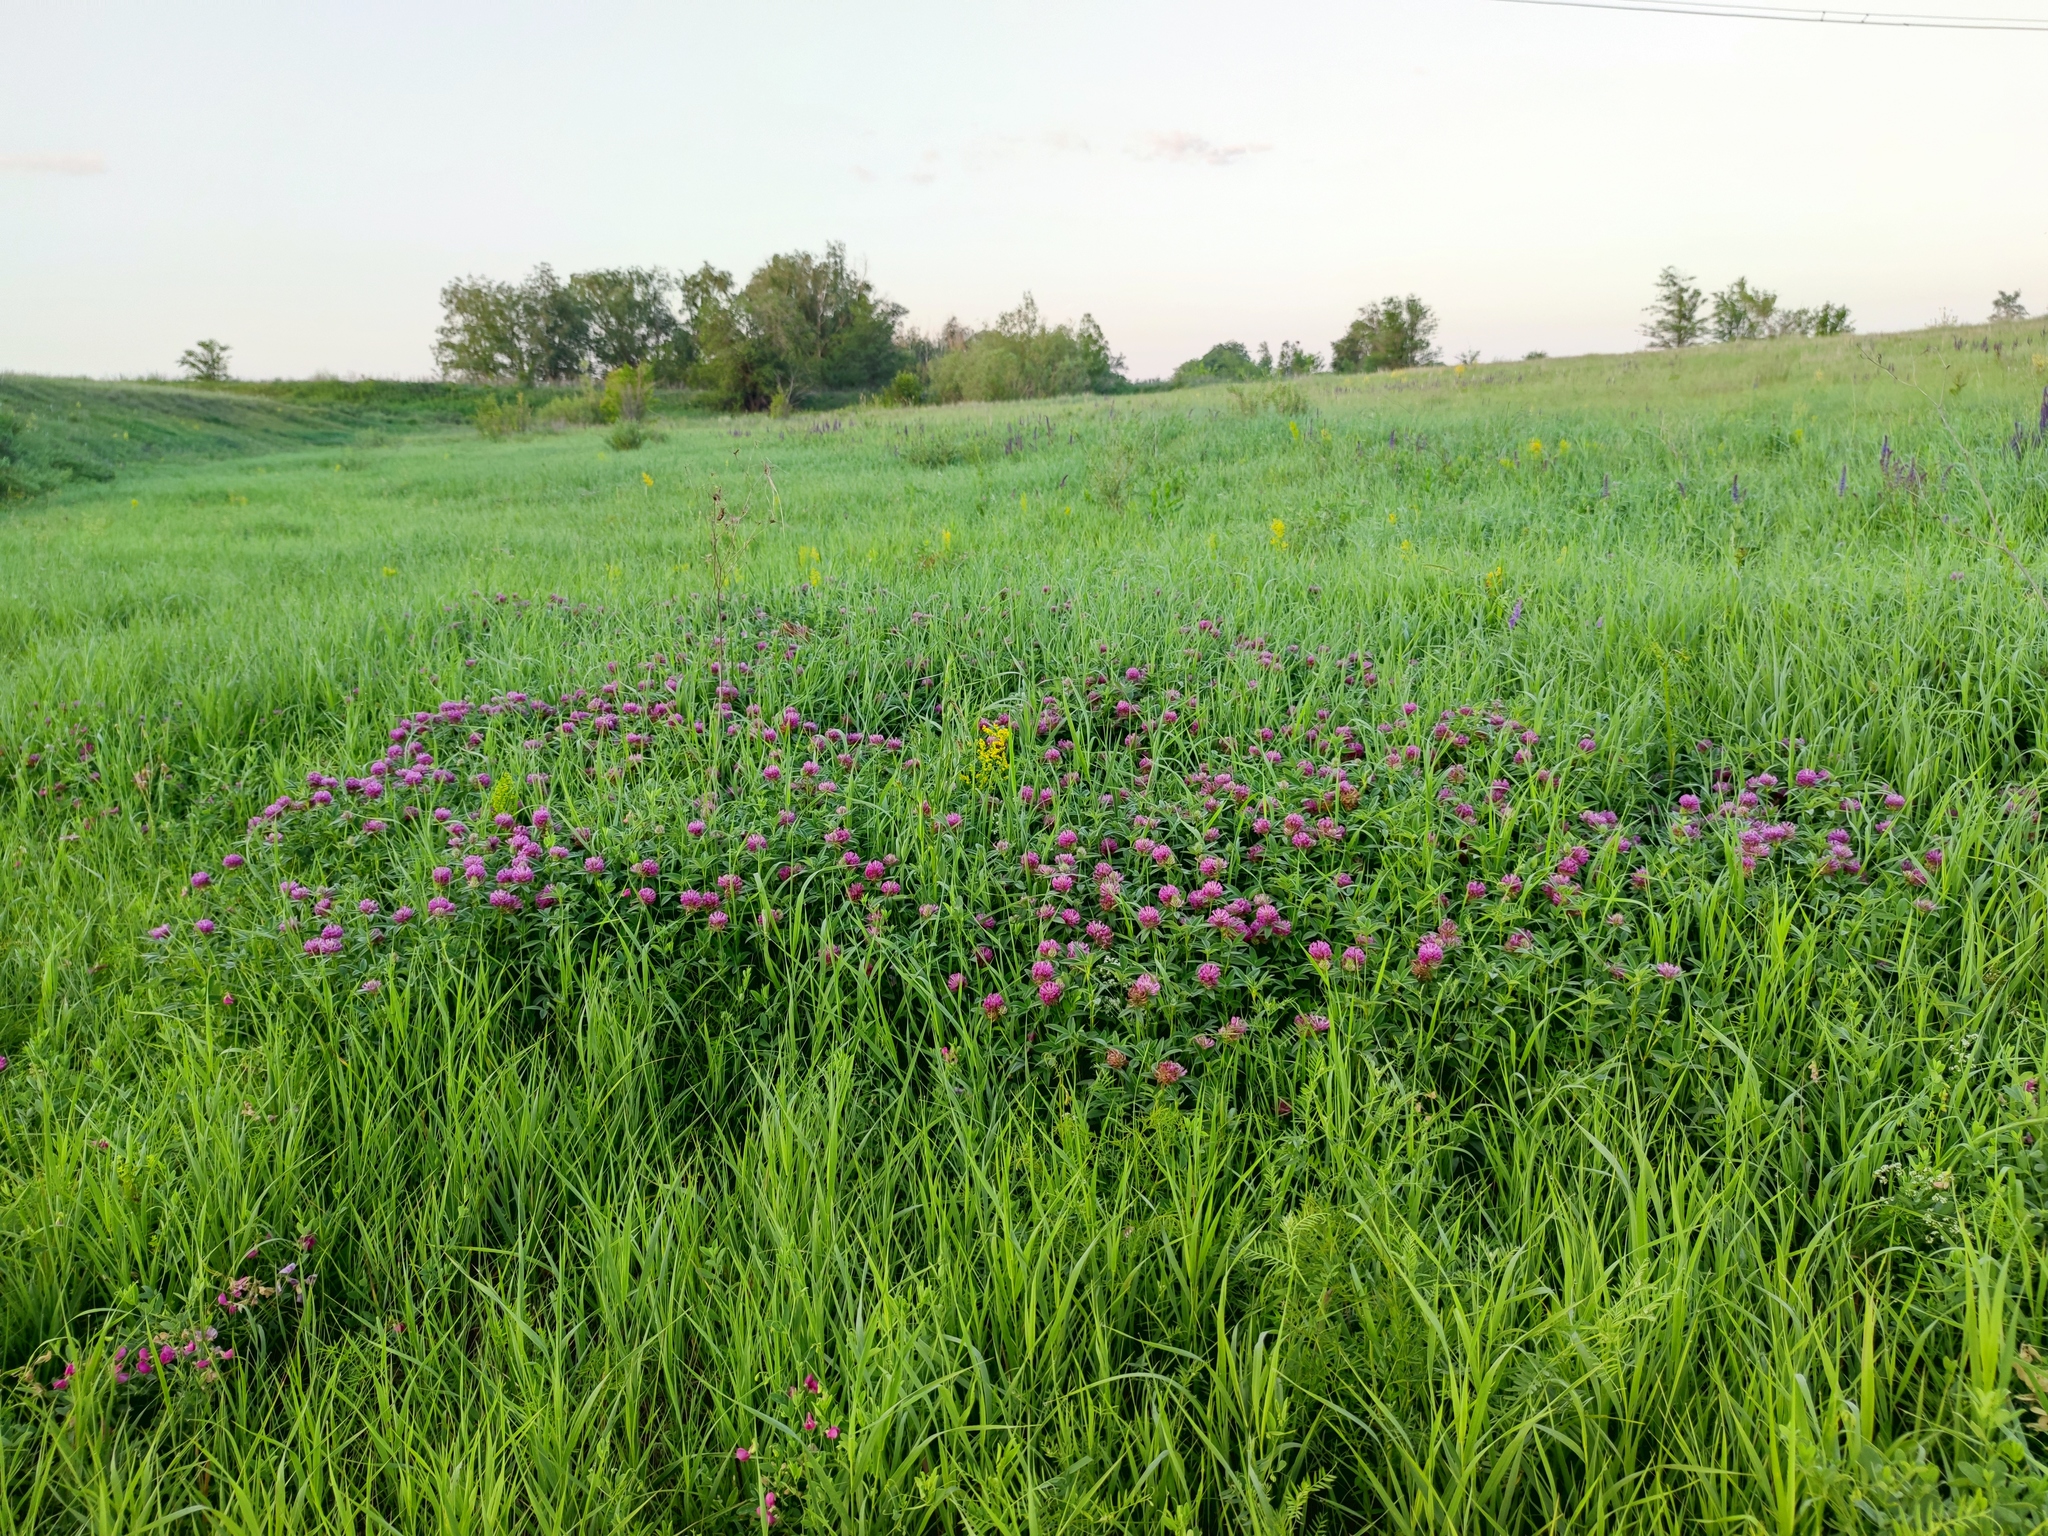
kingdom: Plantae
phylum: Tracheophyta
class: Magnoliopsida
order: Fabales
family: Fabaceae
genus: Trifolium
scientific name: Trifolium medium
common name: Zigzag clover
